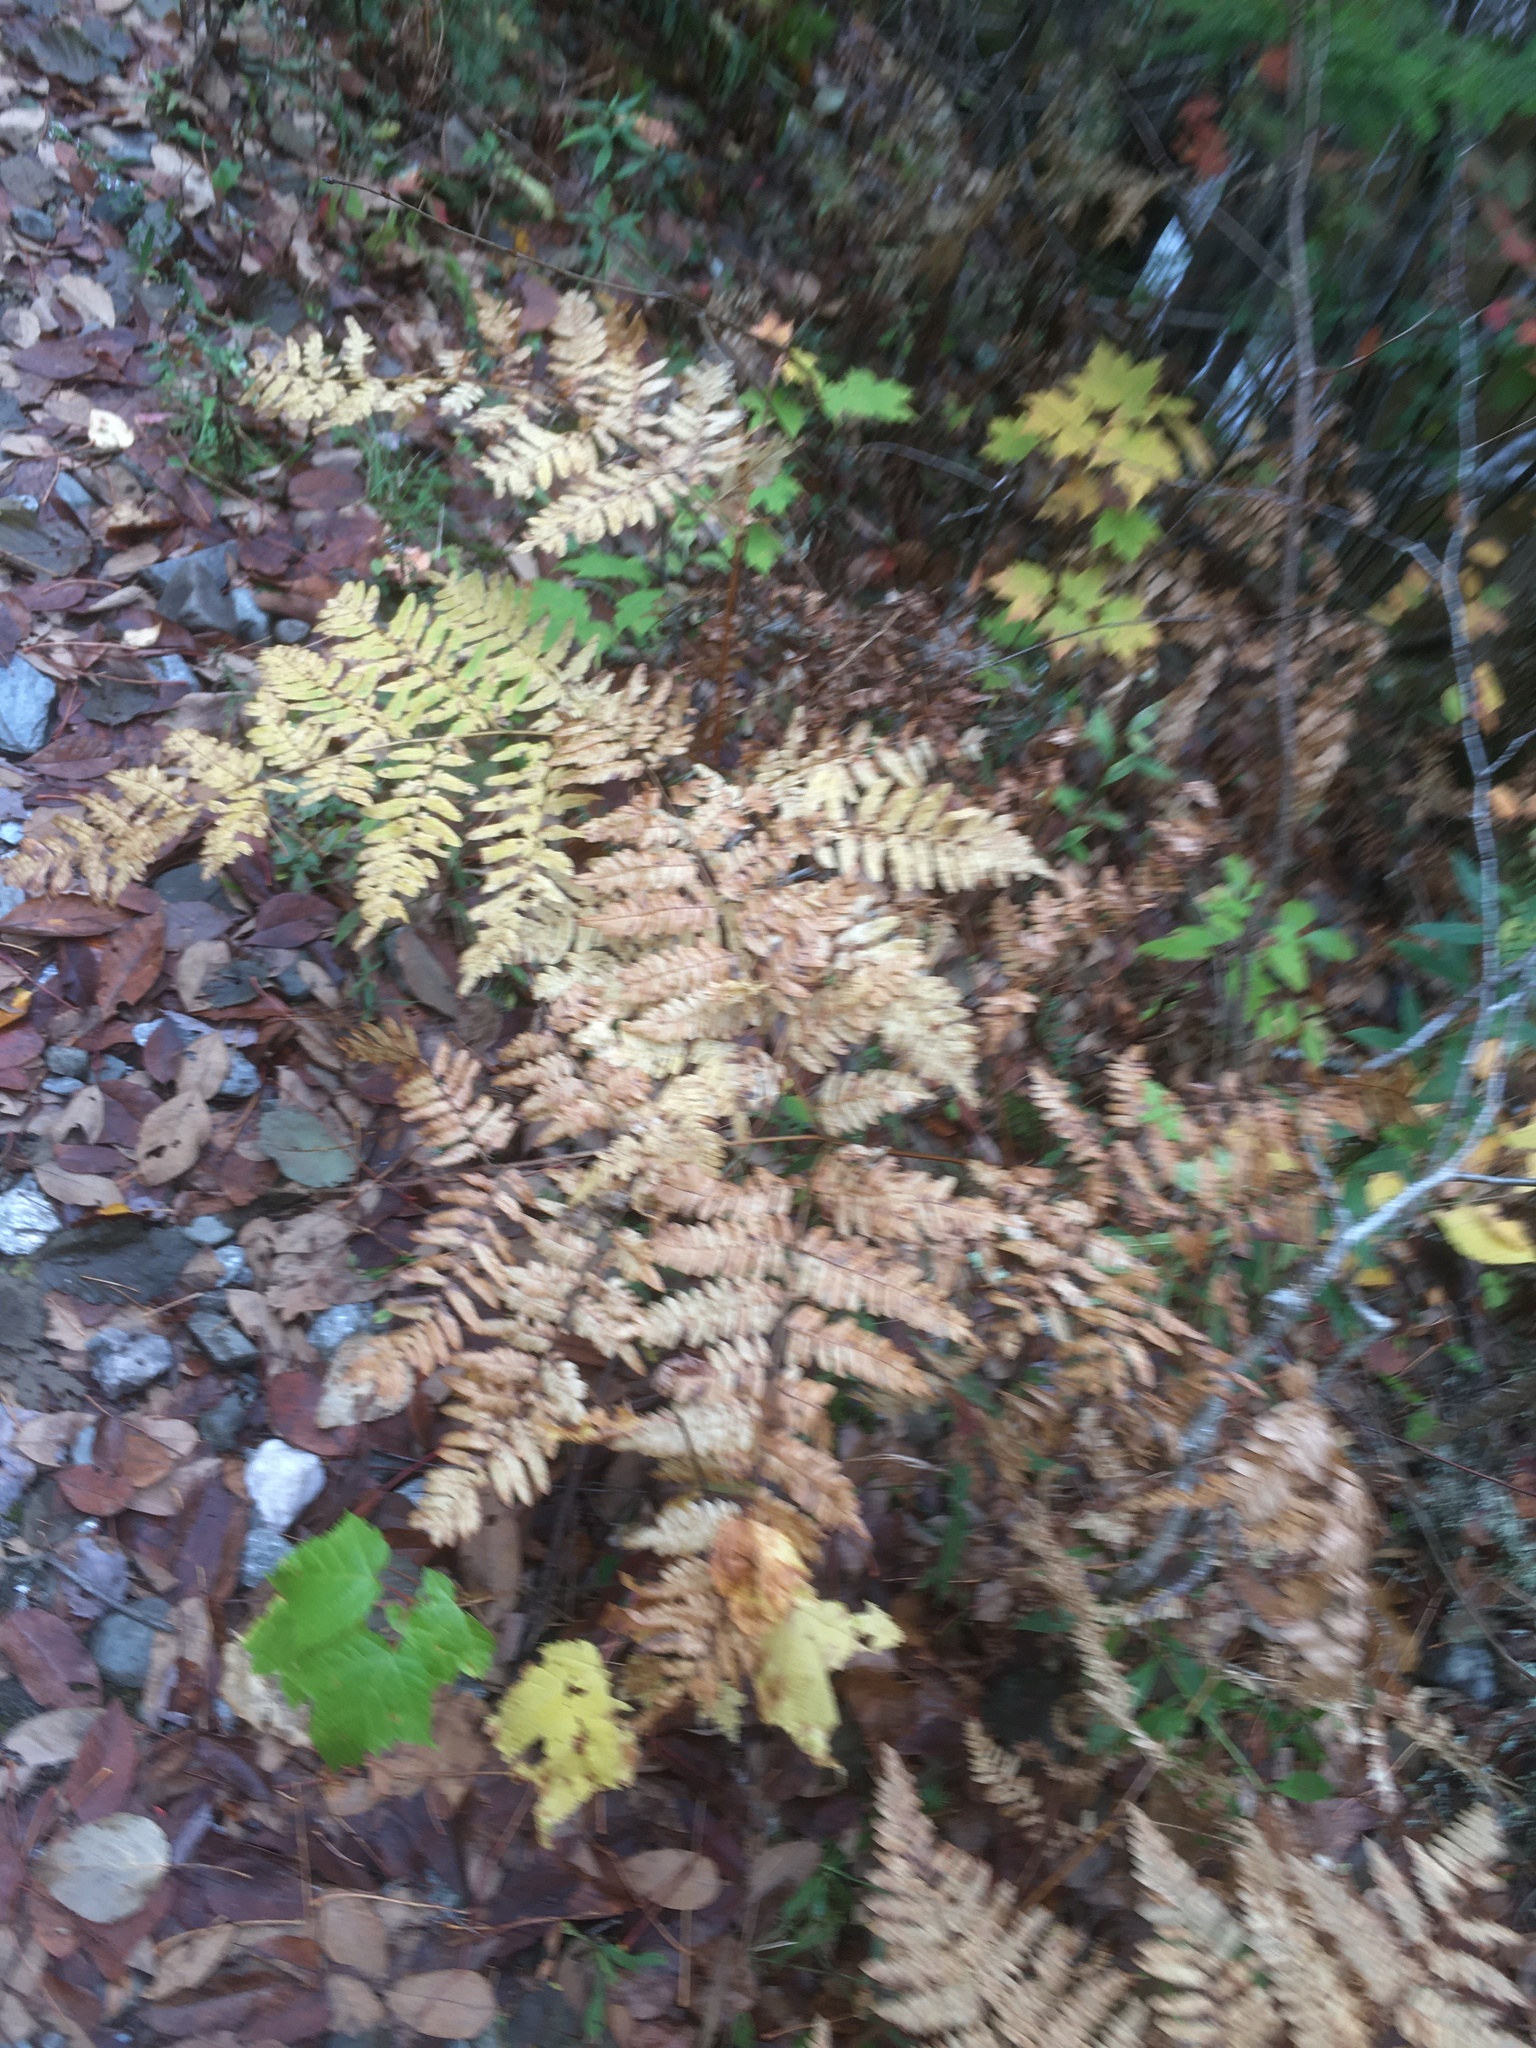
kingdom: Plantae
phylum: Tracheophyta
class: Polypodiopsida
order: Polypodiales
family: Dennstaedtiaceae
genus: Pteridium
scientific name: Pteridium aquilinum
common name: Bracken
